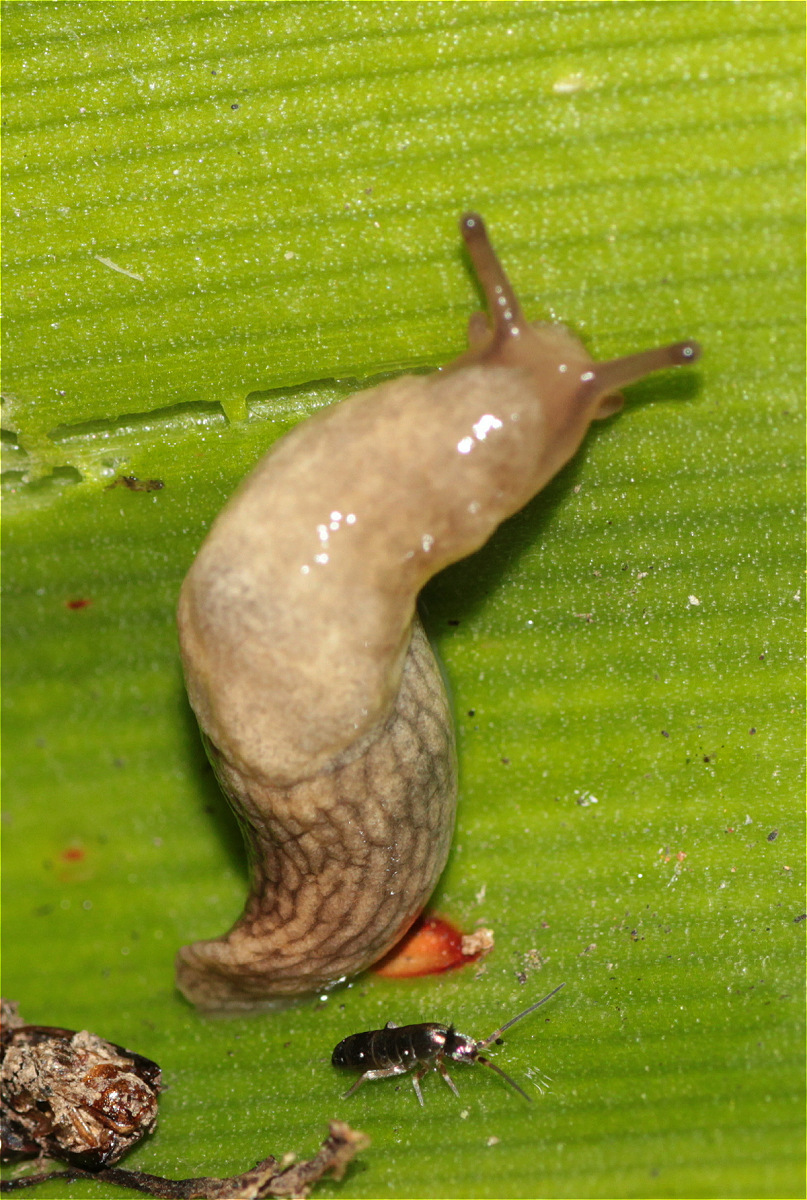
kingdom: Animalia
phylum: Mollusca
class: Gastropoda
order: Stylommatophora
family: Agriolimacidae
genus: Deroceras
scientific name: Deroceras reticulatum
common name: Gray field slug
